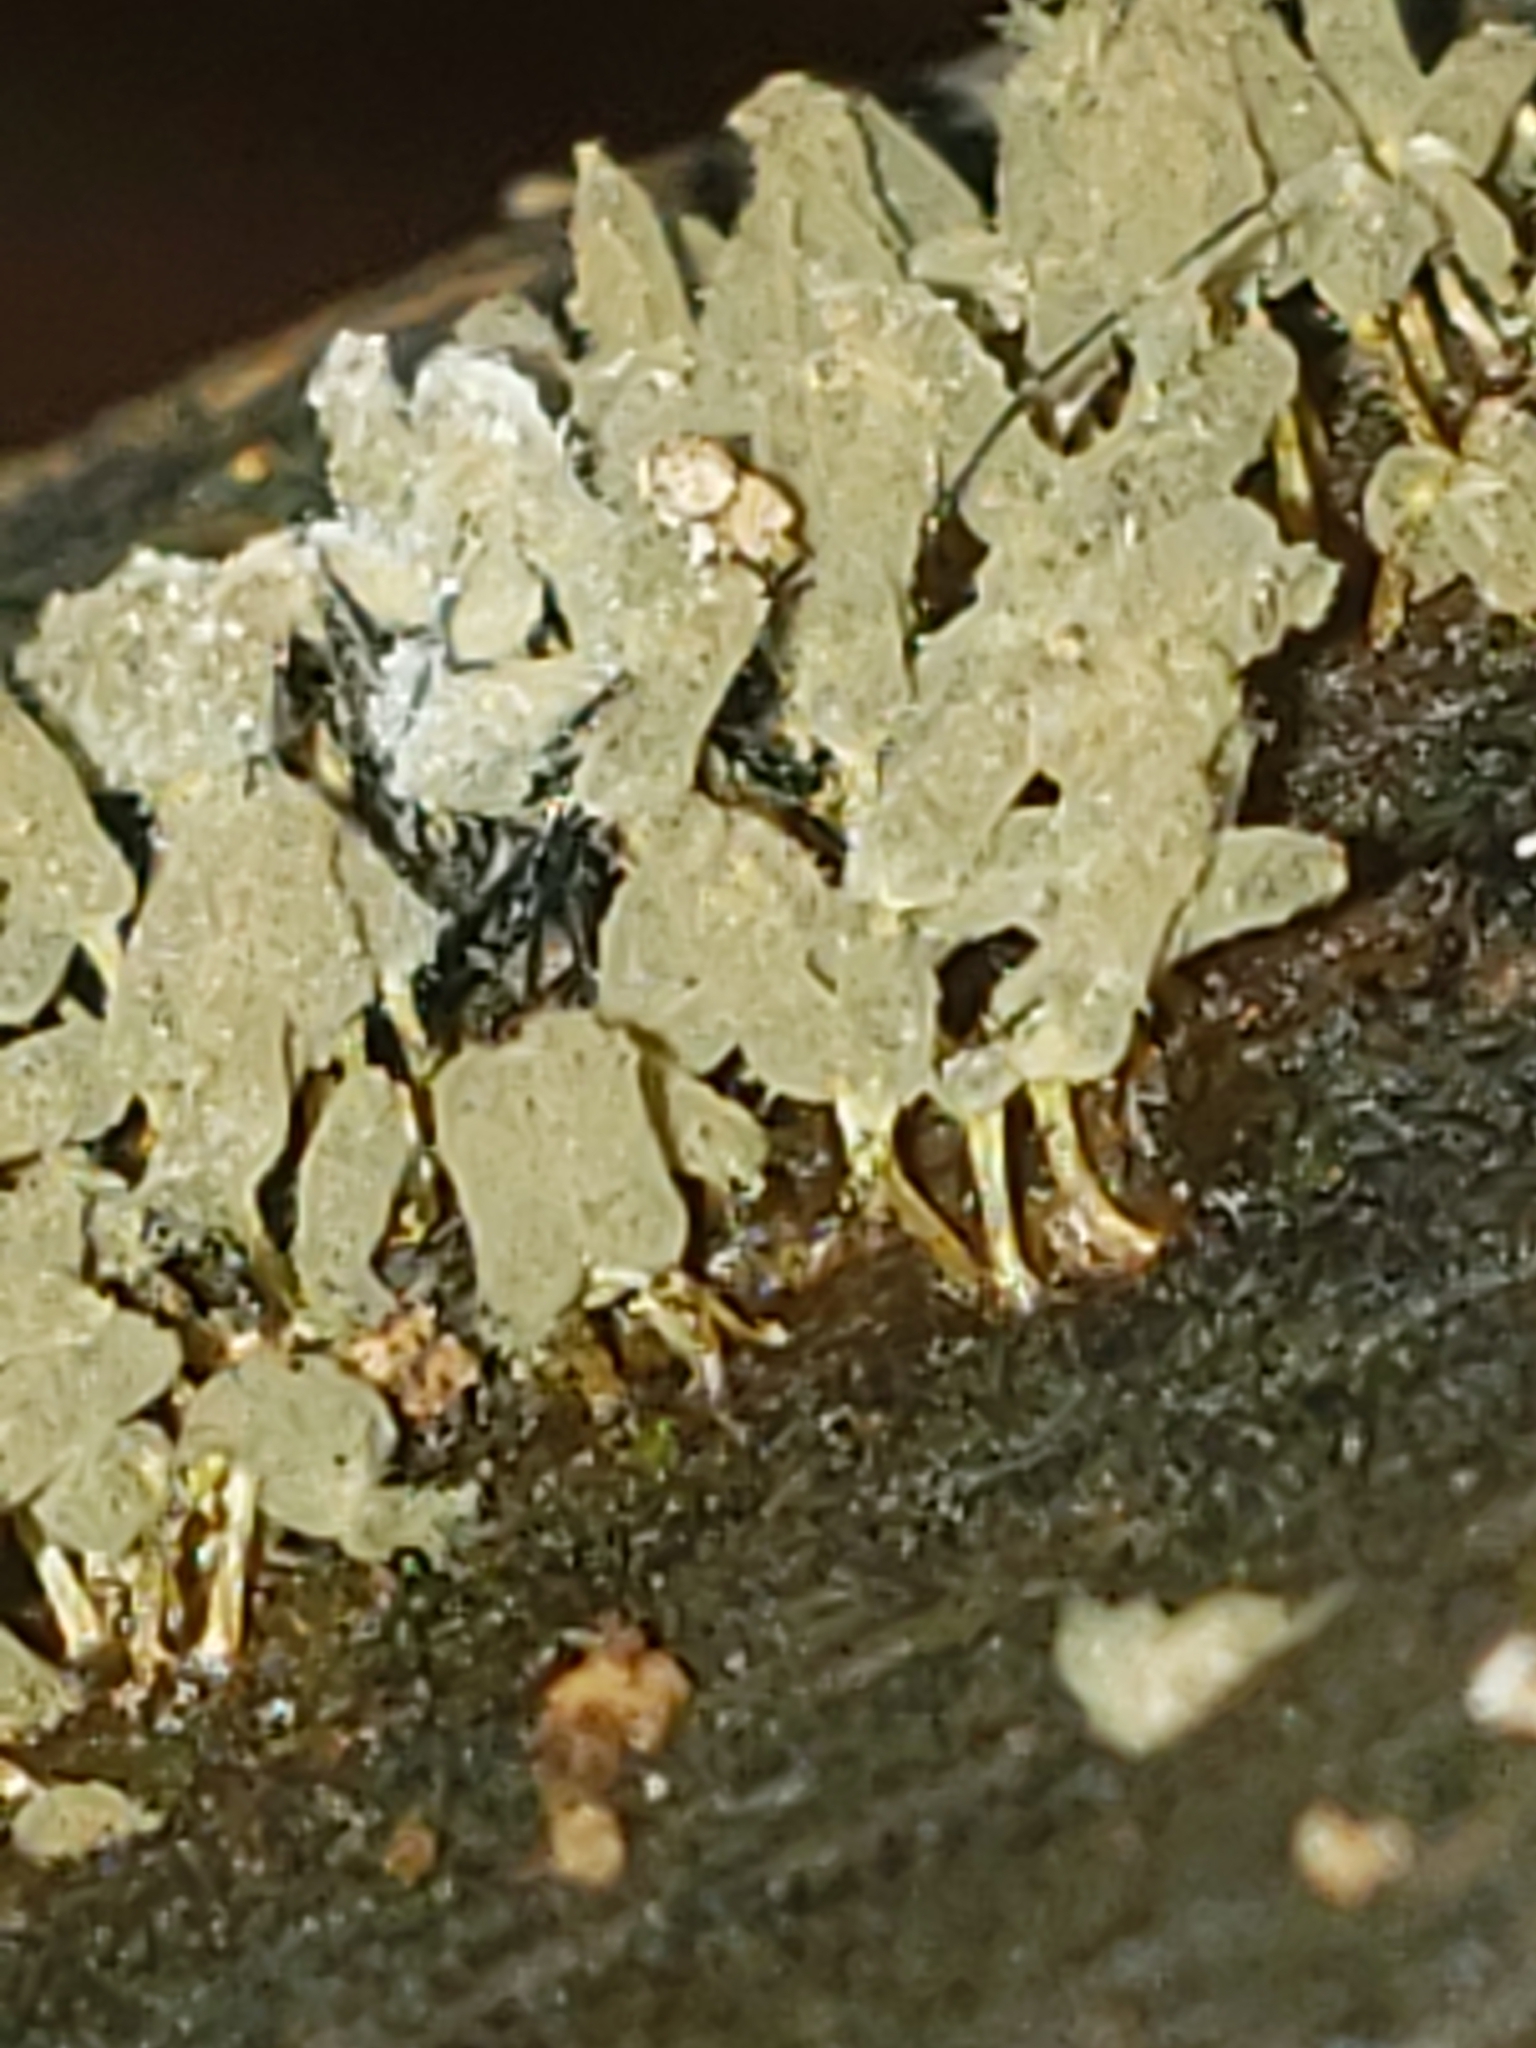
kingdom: Protozoa
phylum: Mycetozoa
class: Myxomycetes
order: Trichiales
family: Arcyriaceae
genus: Arcyria
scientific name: Arcyria cinerea
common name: White carnival candy slime mold
